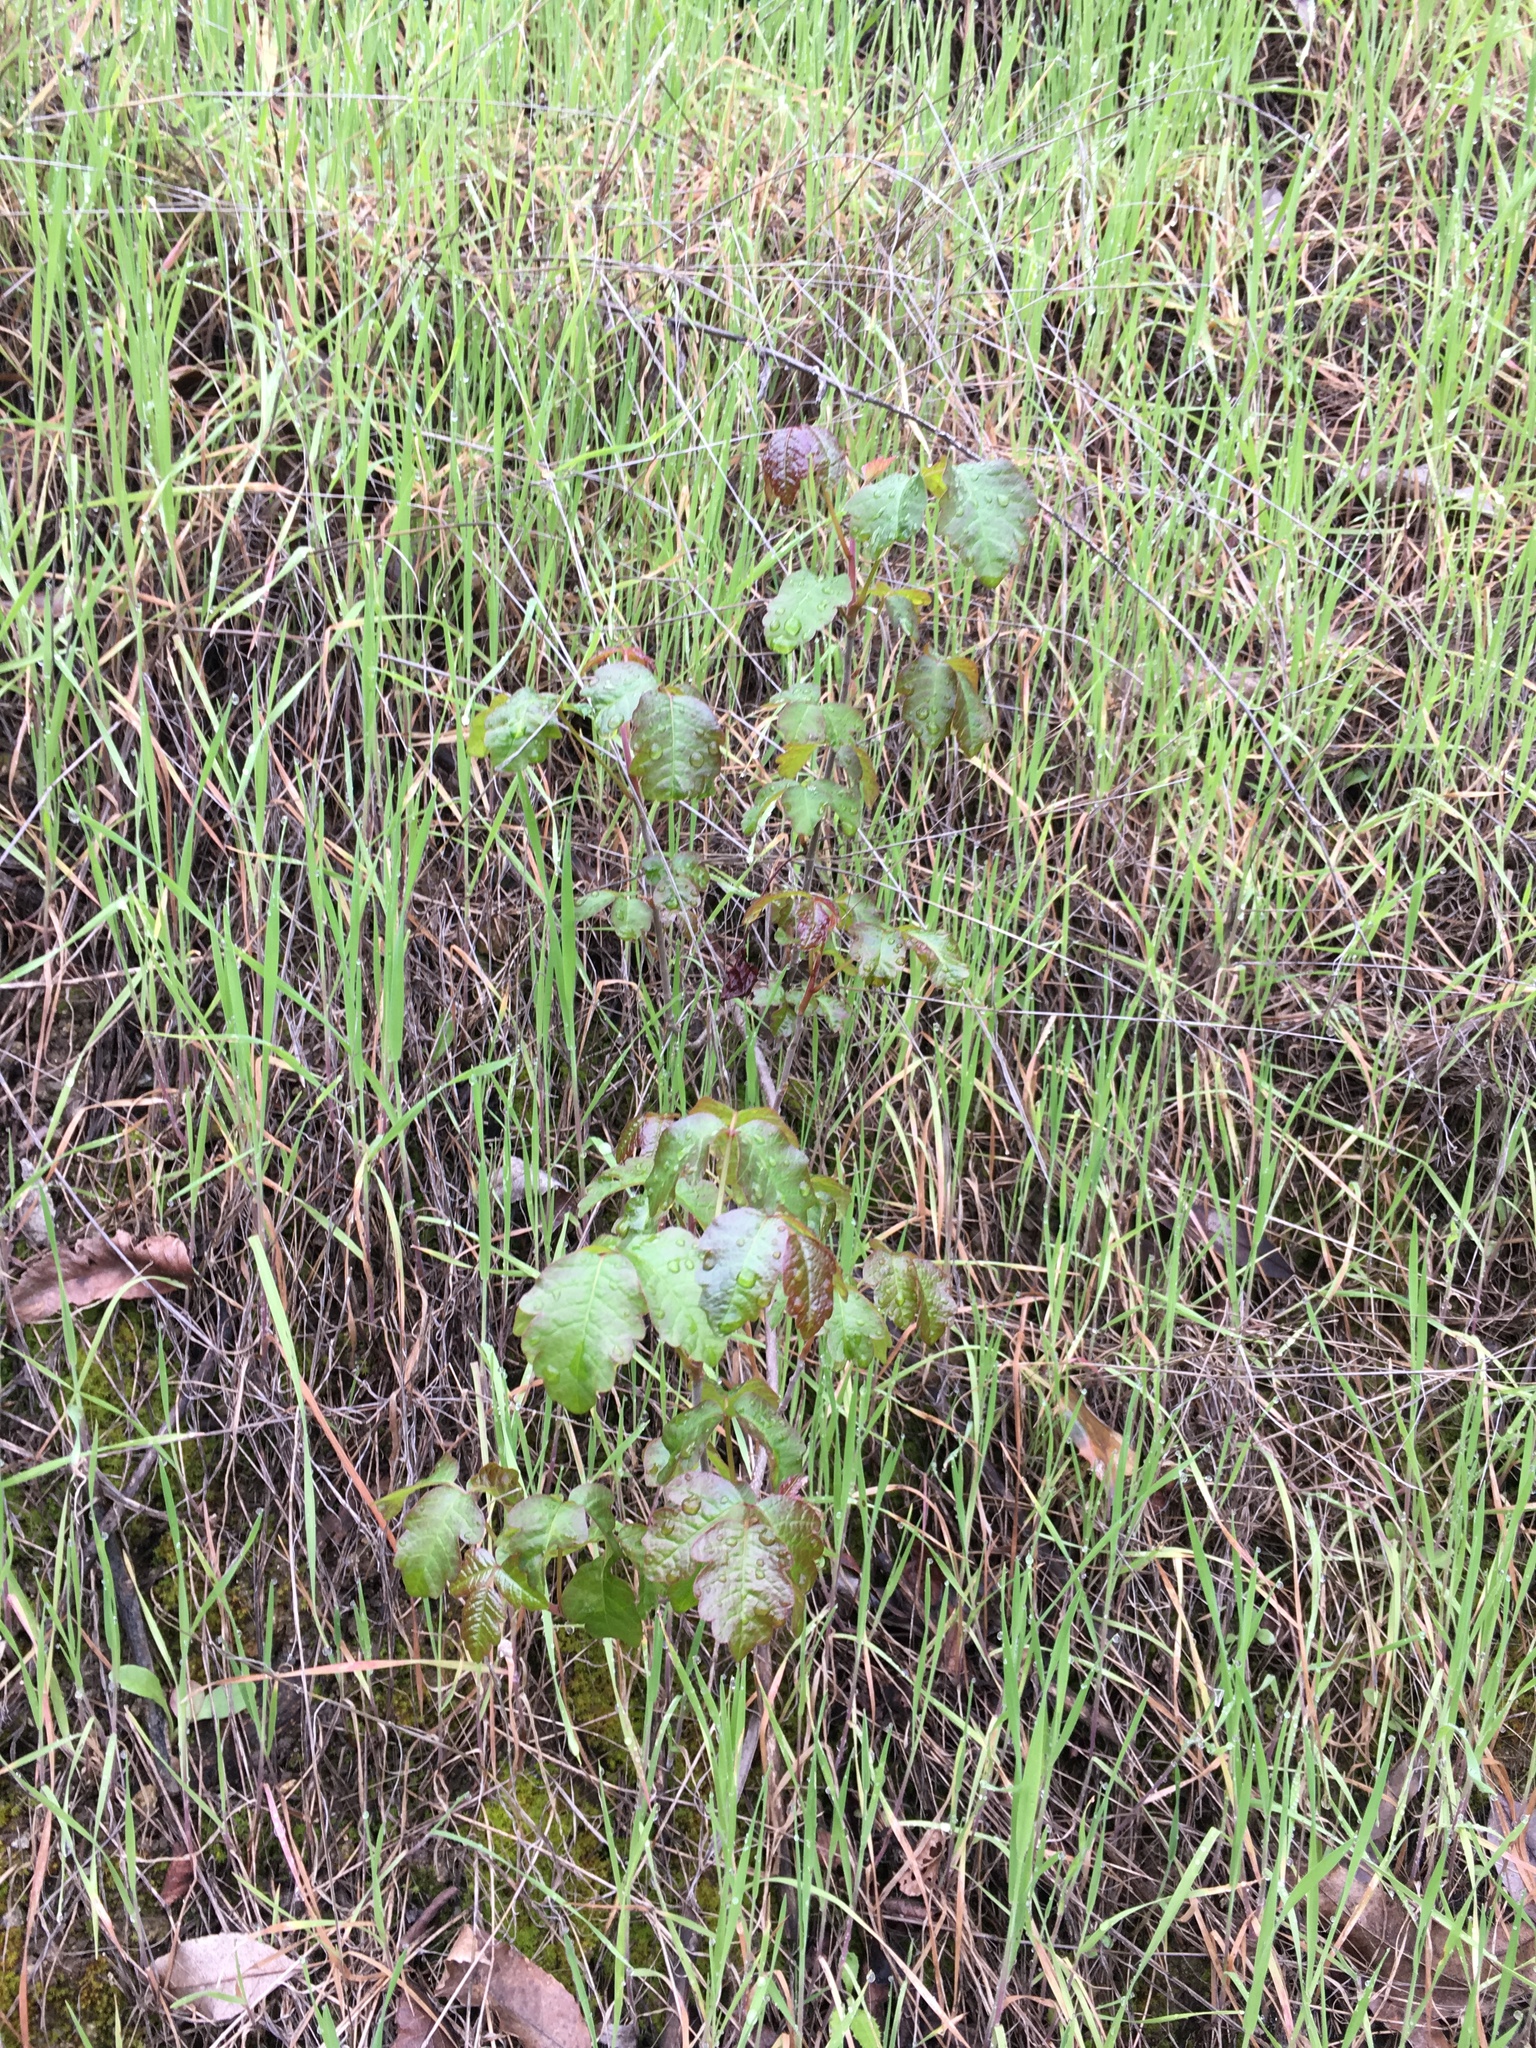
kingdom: Plantae
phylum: Tracheophyta
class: Magnoliopsida
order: Sapindales
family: Anacardiaceae
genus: Toxicodendron
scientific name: Toxicodendron diversilobum
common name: Pacific poison-oak
